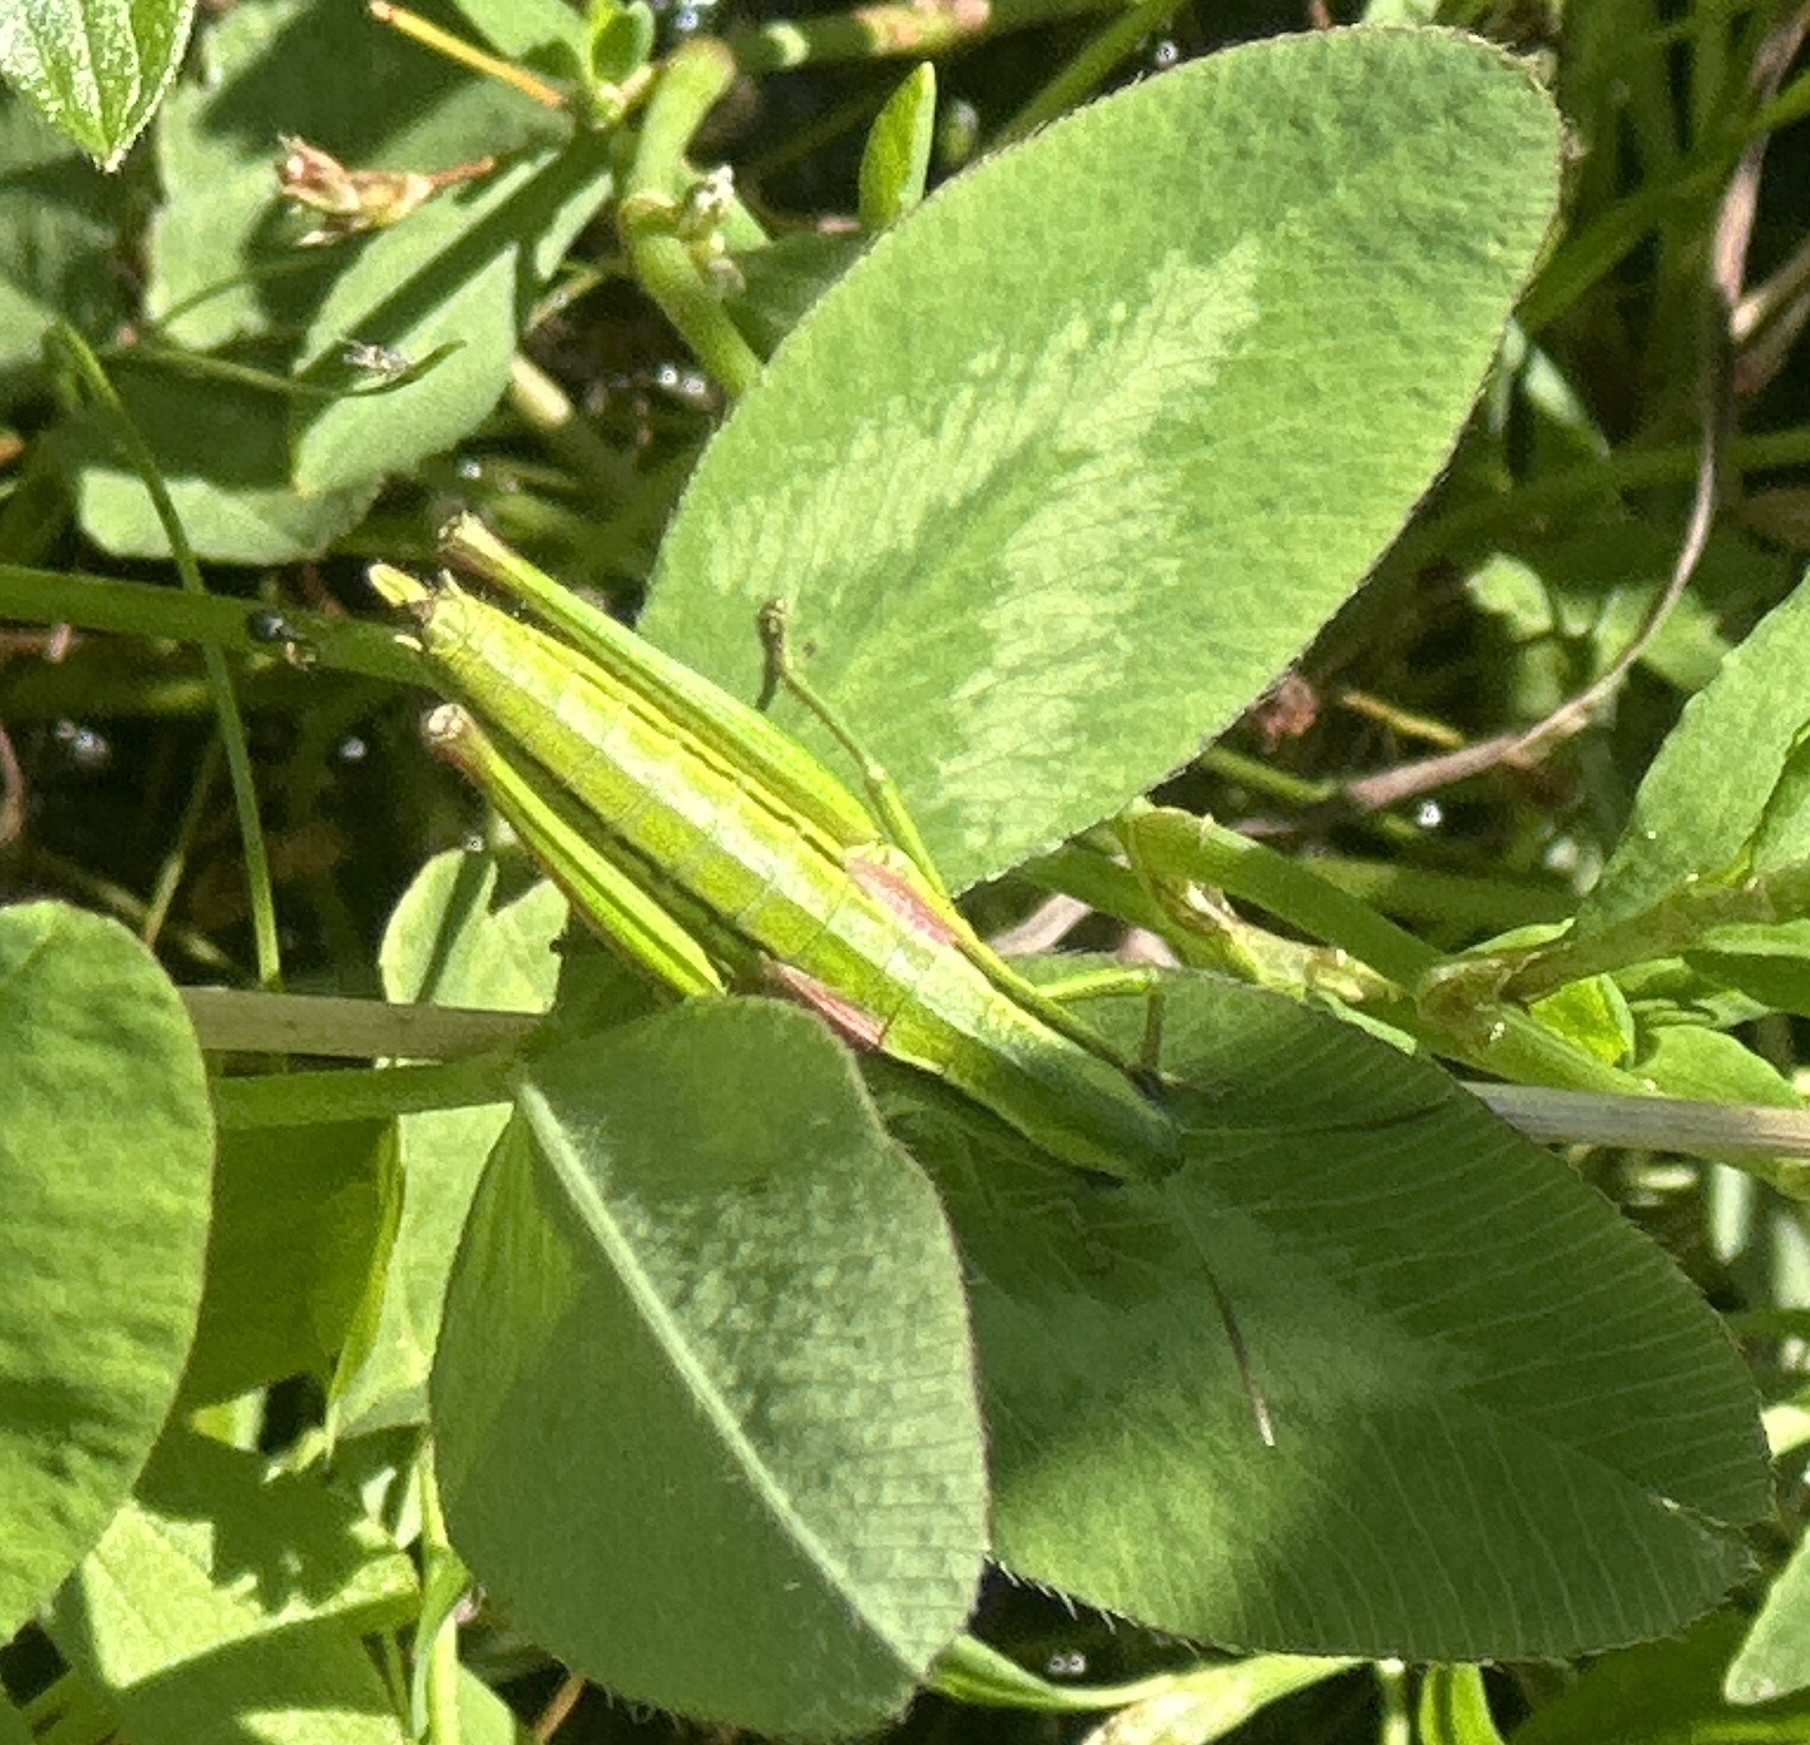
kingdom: Animalia
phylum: Arthropoda
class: Insecta
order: Orthoptera
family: Acrididae
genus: Euthystira
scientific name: Euthystira brachyptera
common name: Small gold grasshopper
